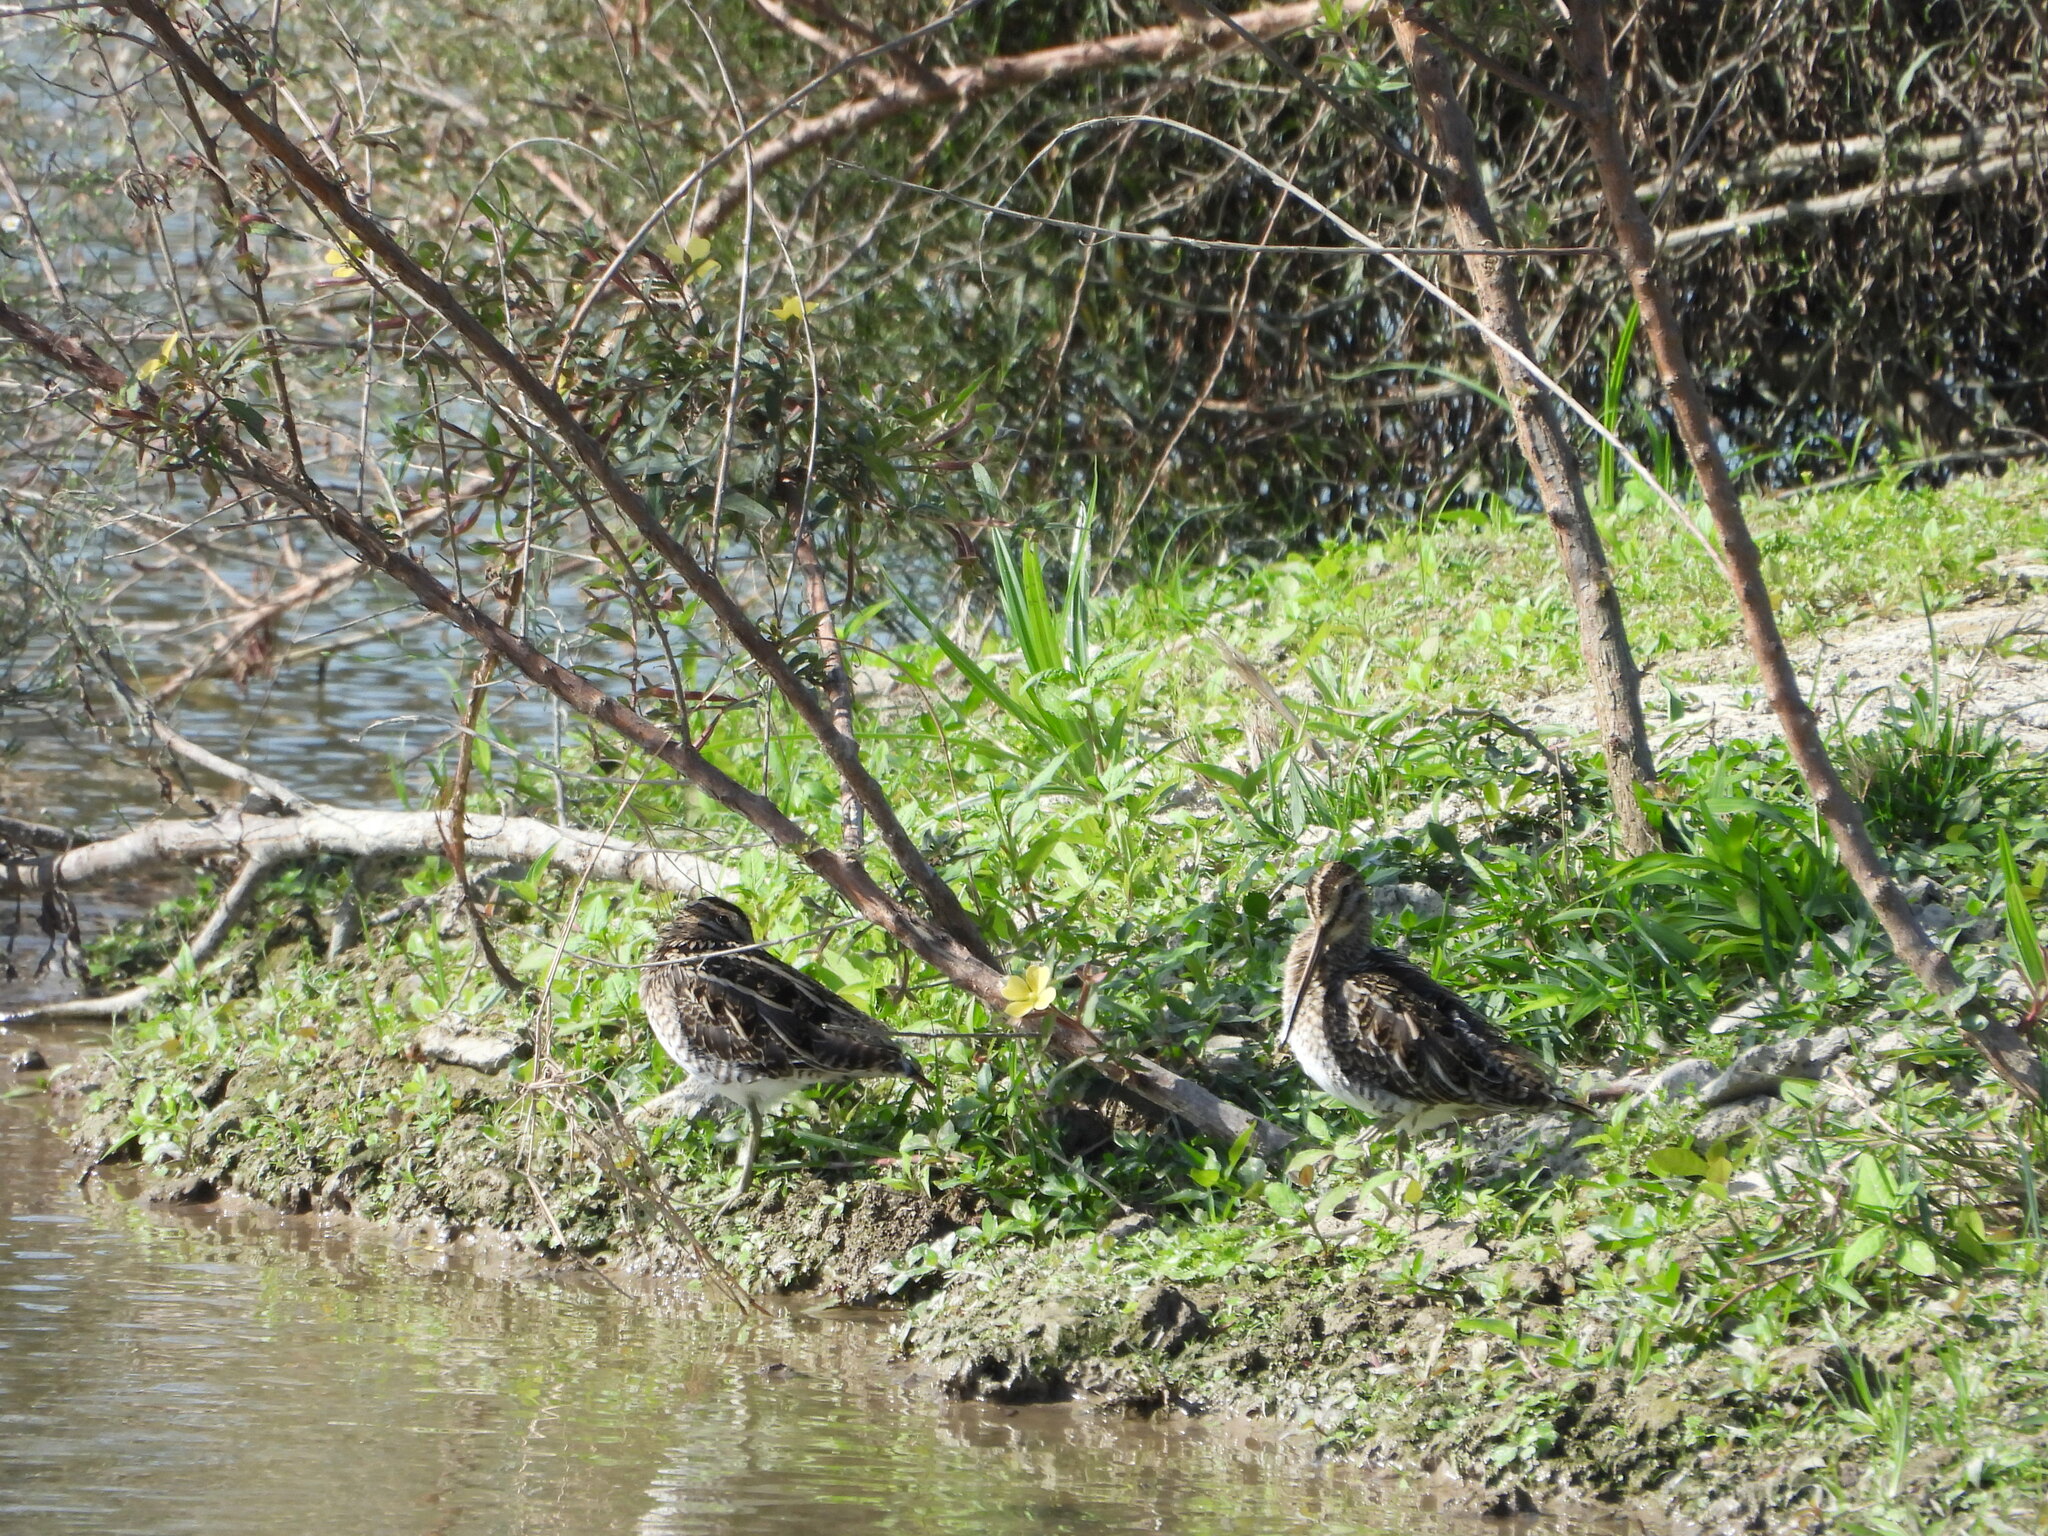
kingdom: Animalia
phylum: Chordata
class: Aves
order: Charadriiformes
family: Scolopacidae
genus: Gallinago
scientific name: Gallinago gallinago
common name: Common snipe
